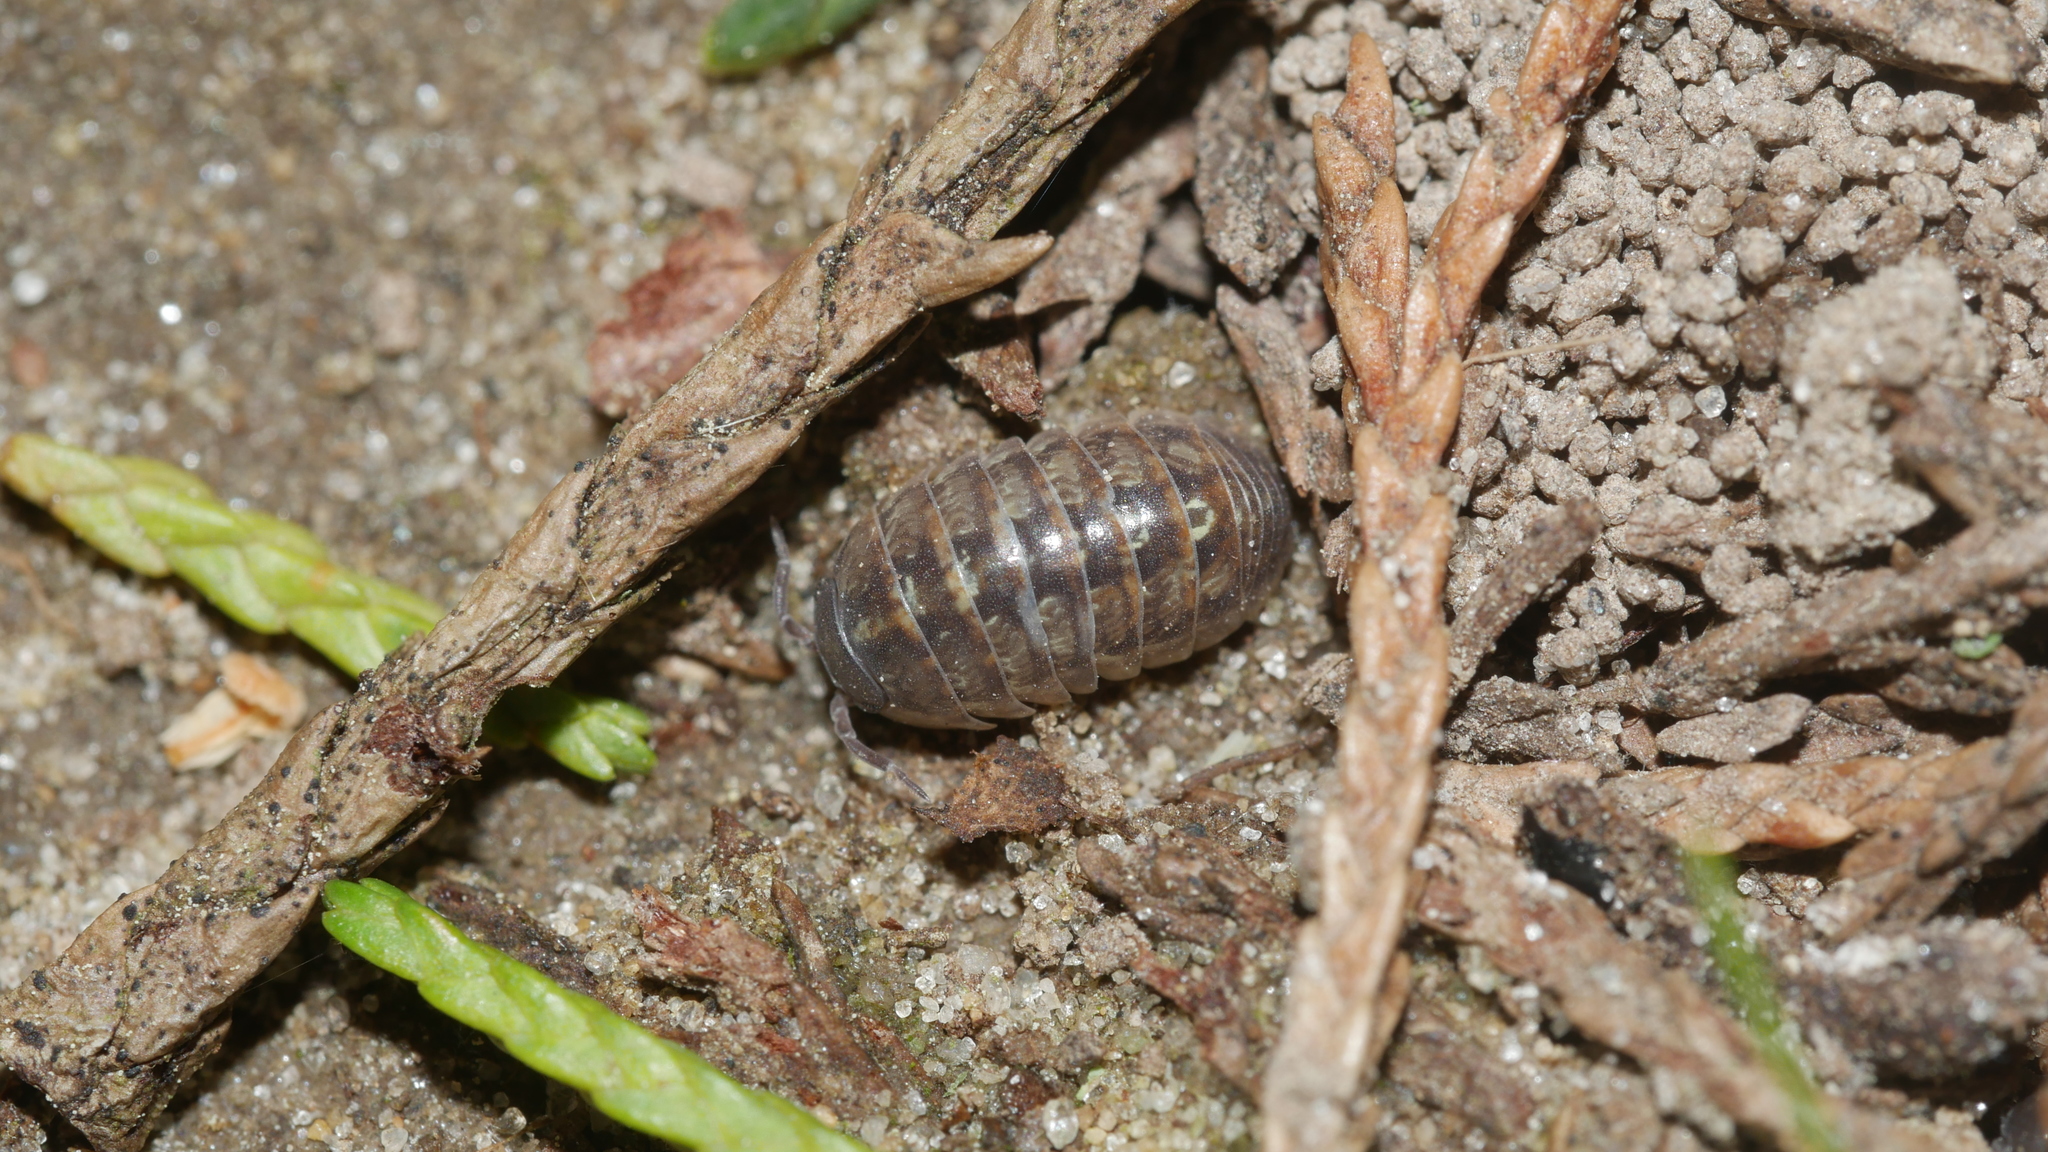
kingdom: Animalia
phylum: Arthropoda
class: Malacostraca
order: Isopoda
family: Armadillidiidae
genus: Armadillidium
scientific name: Armadillidium vulgare
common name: Common pill woodlouse
